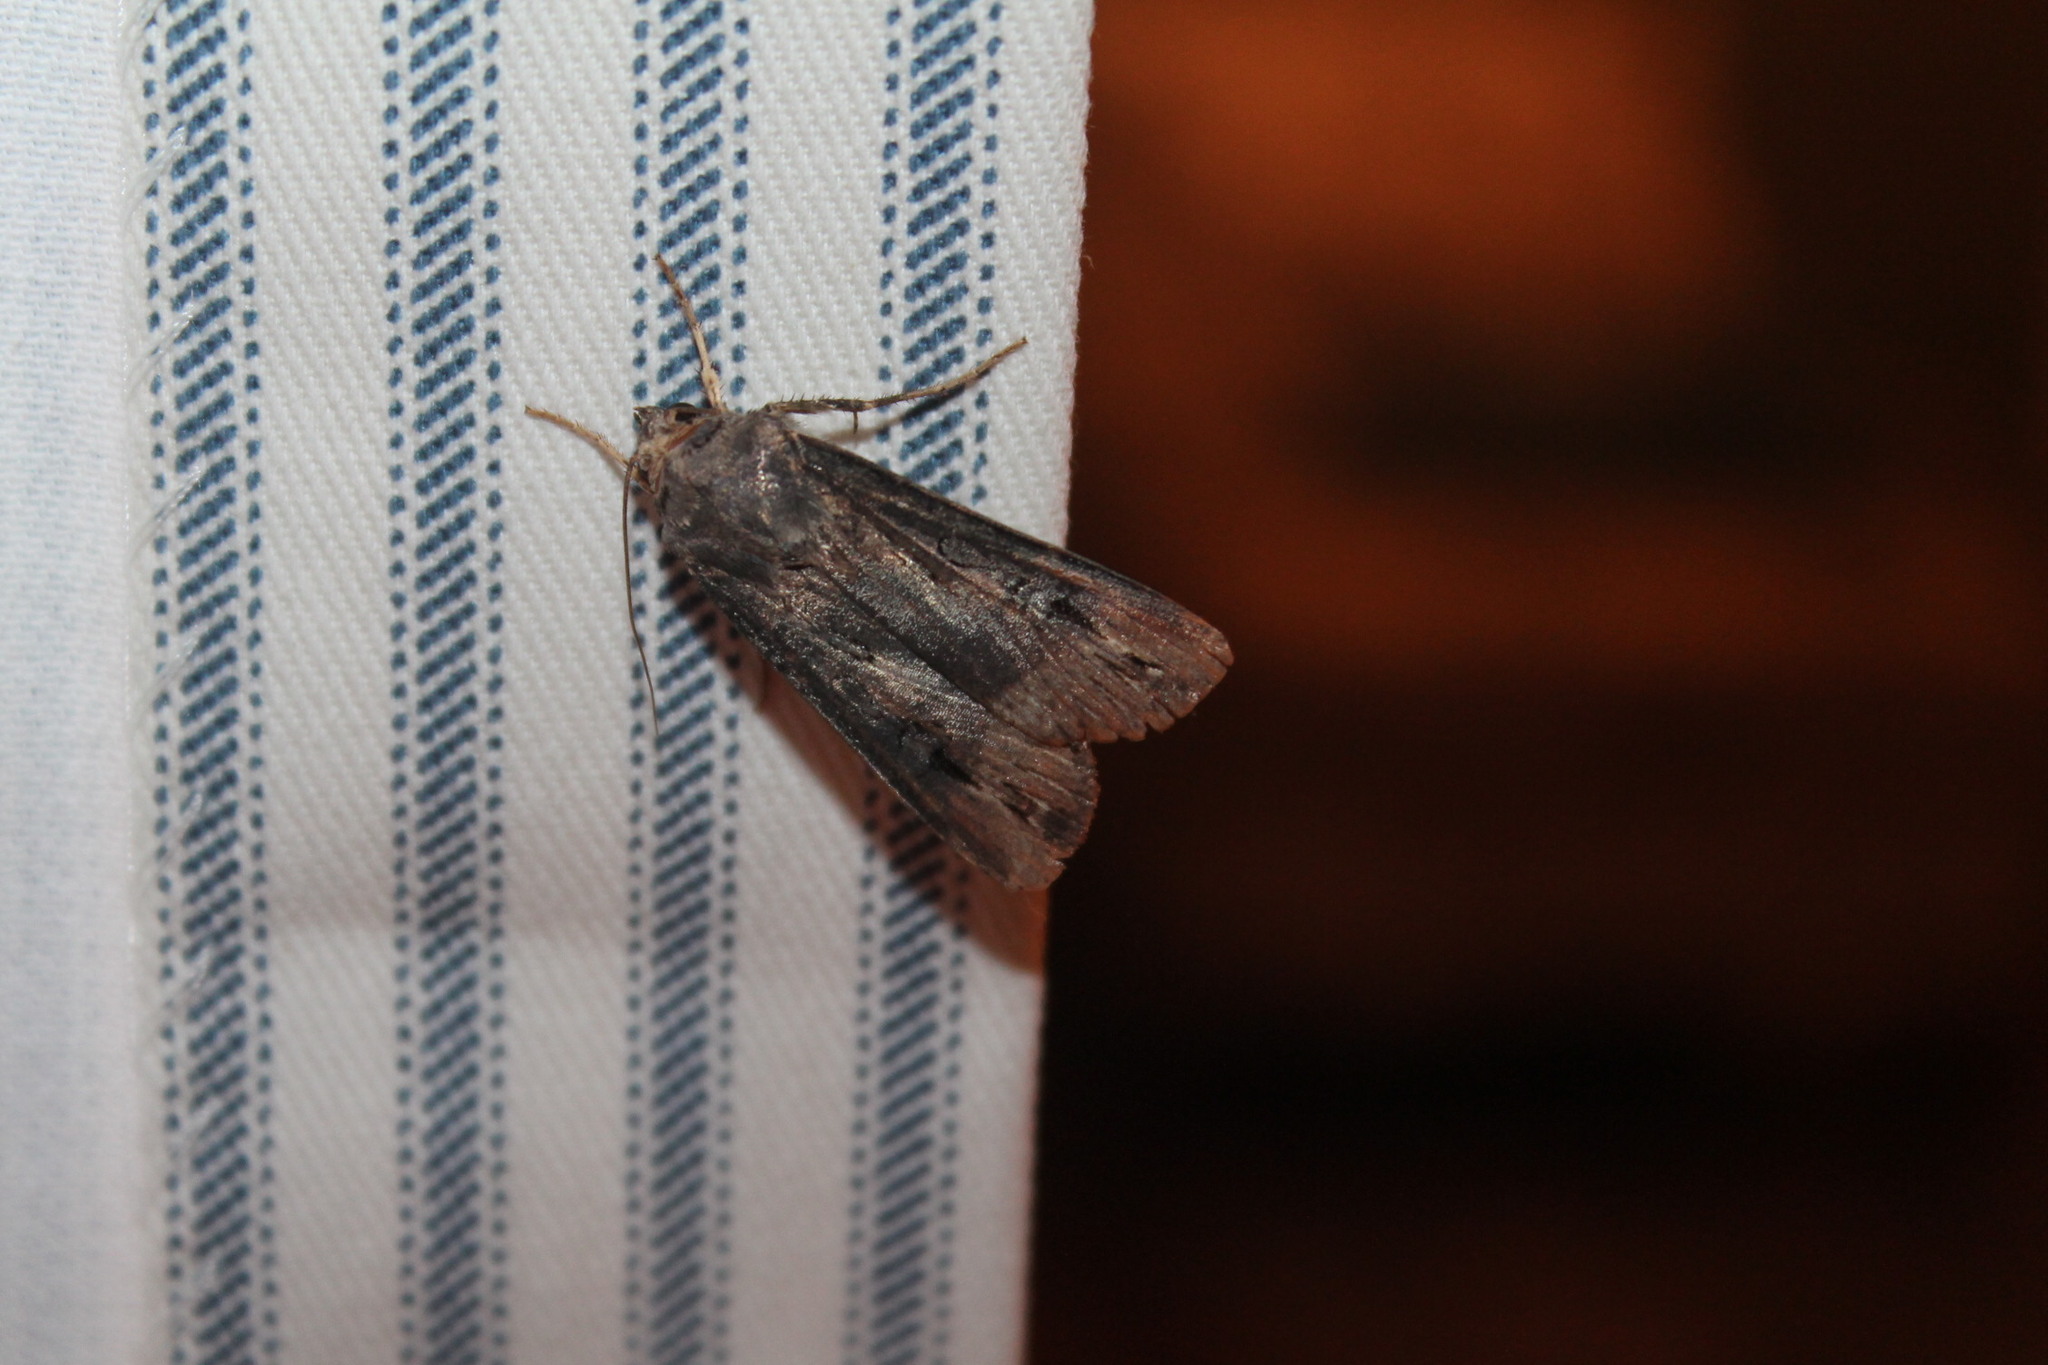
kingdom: Animalia
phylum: Arthropoda
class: Insecta
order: Lepidoptera
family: Noctuidae
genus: Agrotis
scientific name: Agrotis ipsilon
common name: Dark sword-grass
